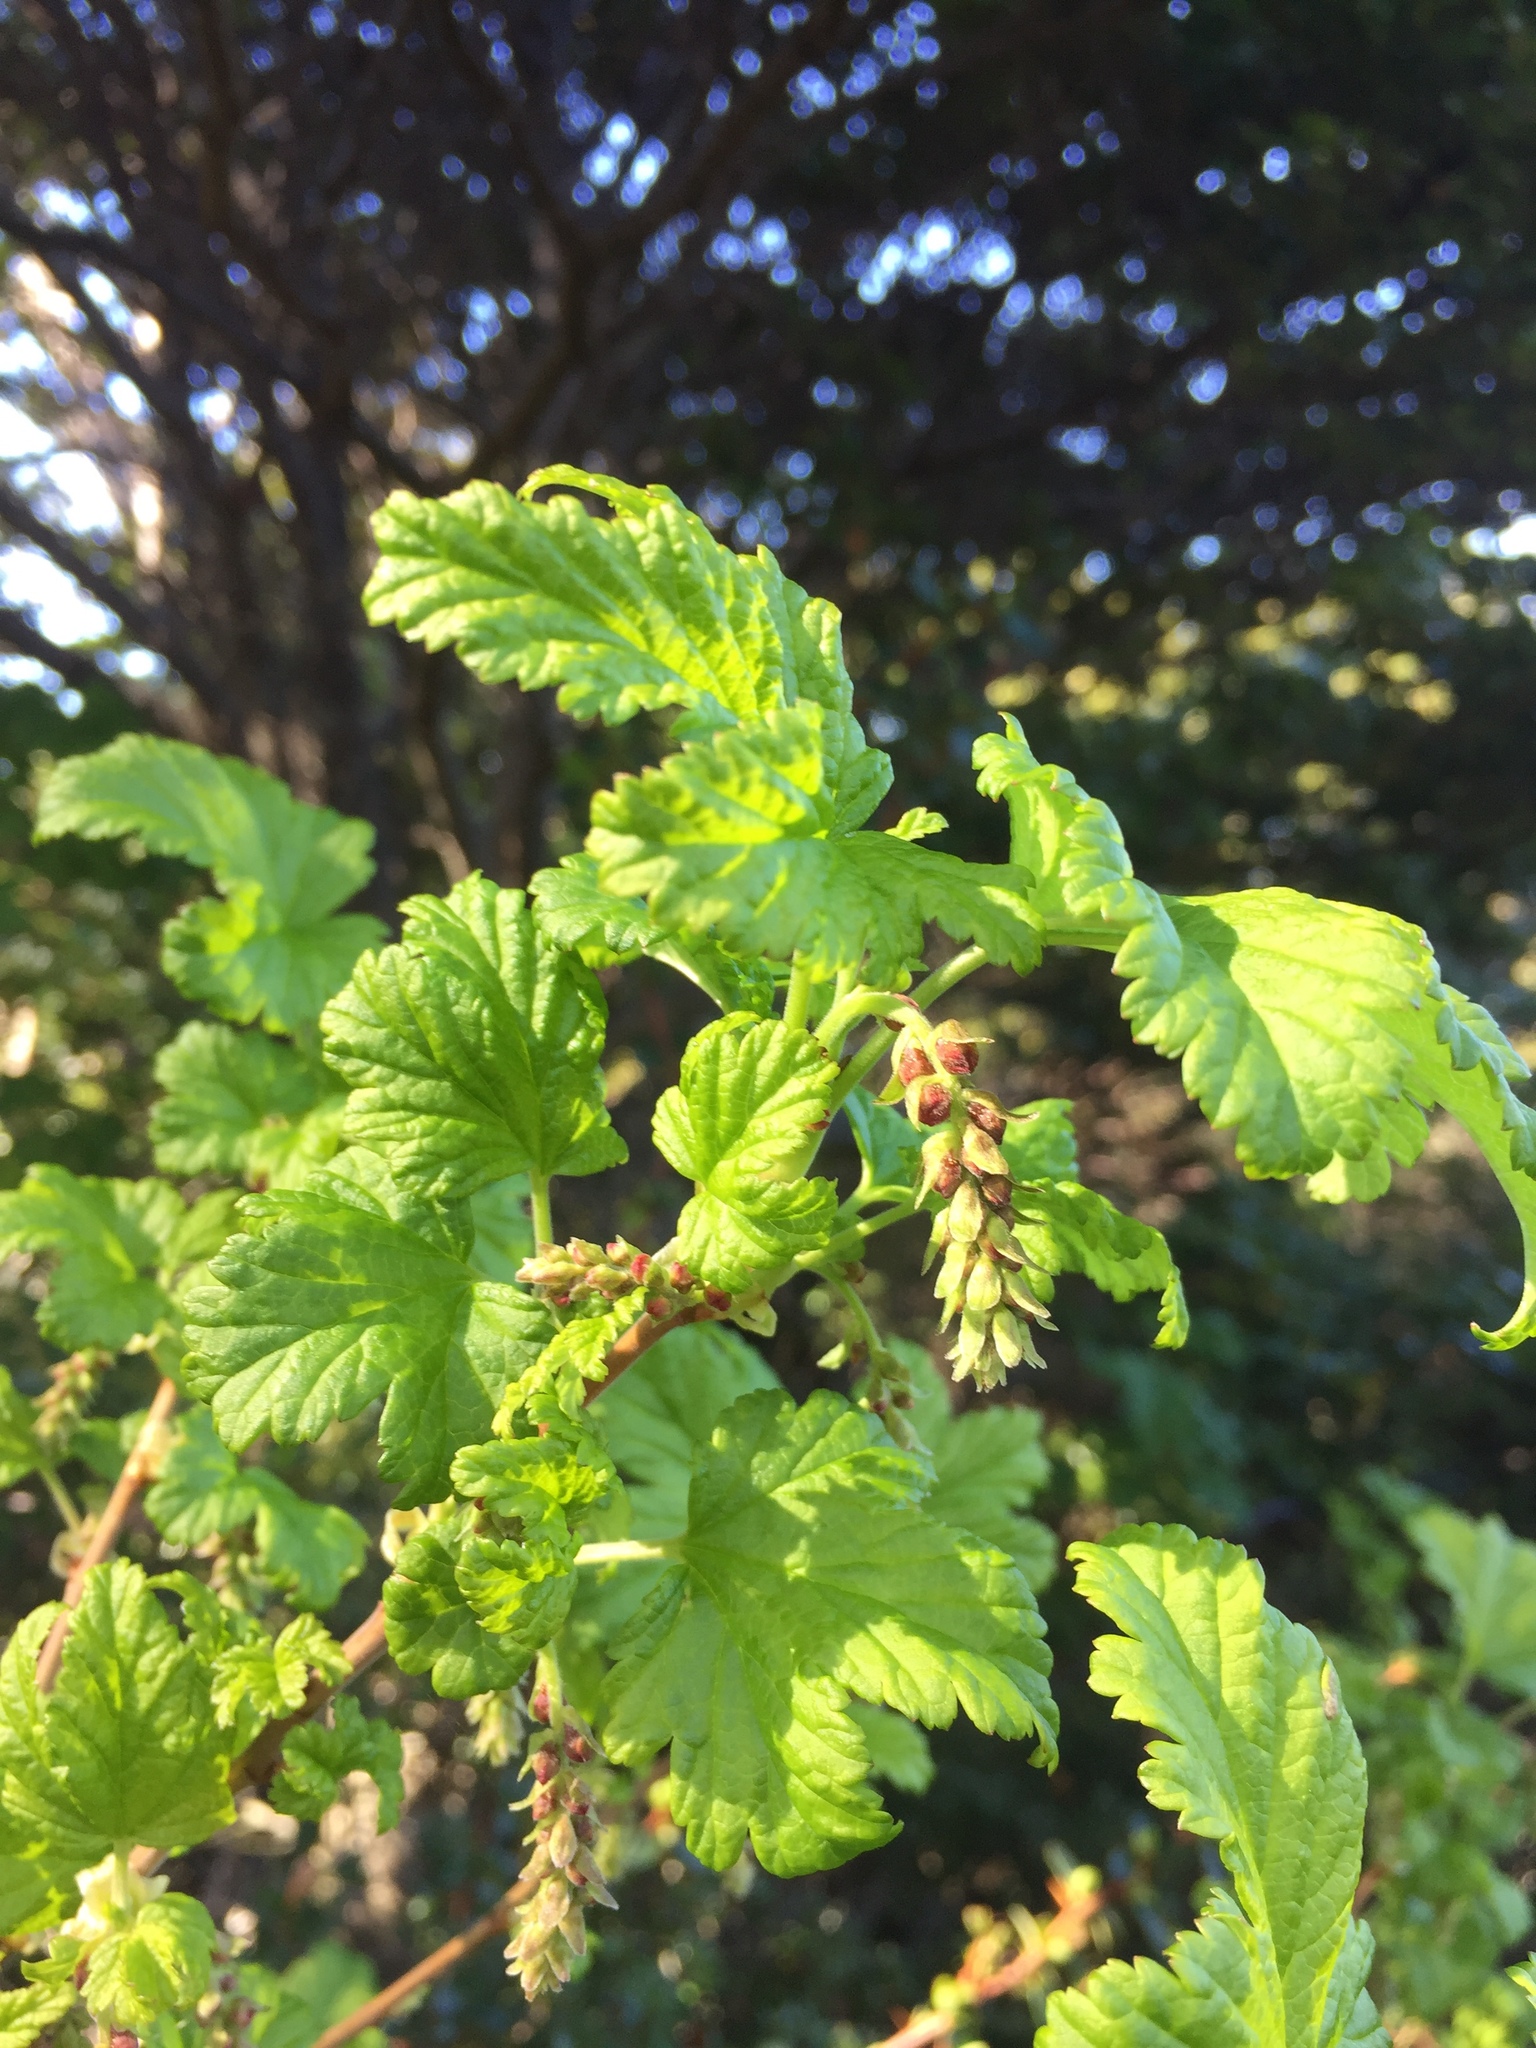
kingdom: Plantae
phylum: Tracheophyta
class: Magnoliopsida
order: Saxifragales
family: Grossulariaceae
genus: Ribes
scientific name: Ribes magellanicum
